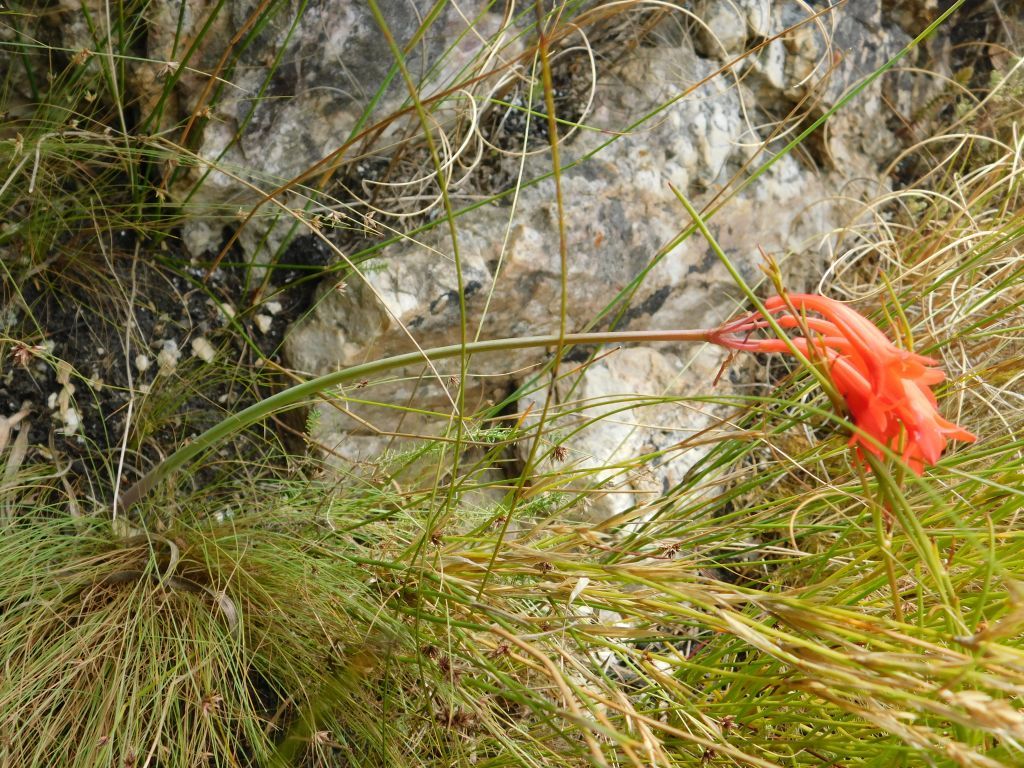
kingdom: Plantae
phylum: Tracheophyta
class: Liliopsida
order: Asparagales
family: Amaryllidaceae
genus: Cyrtanthus
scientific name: Cyrtanthus collinus
